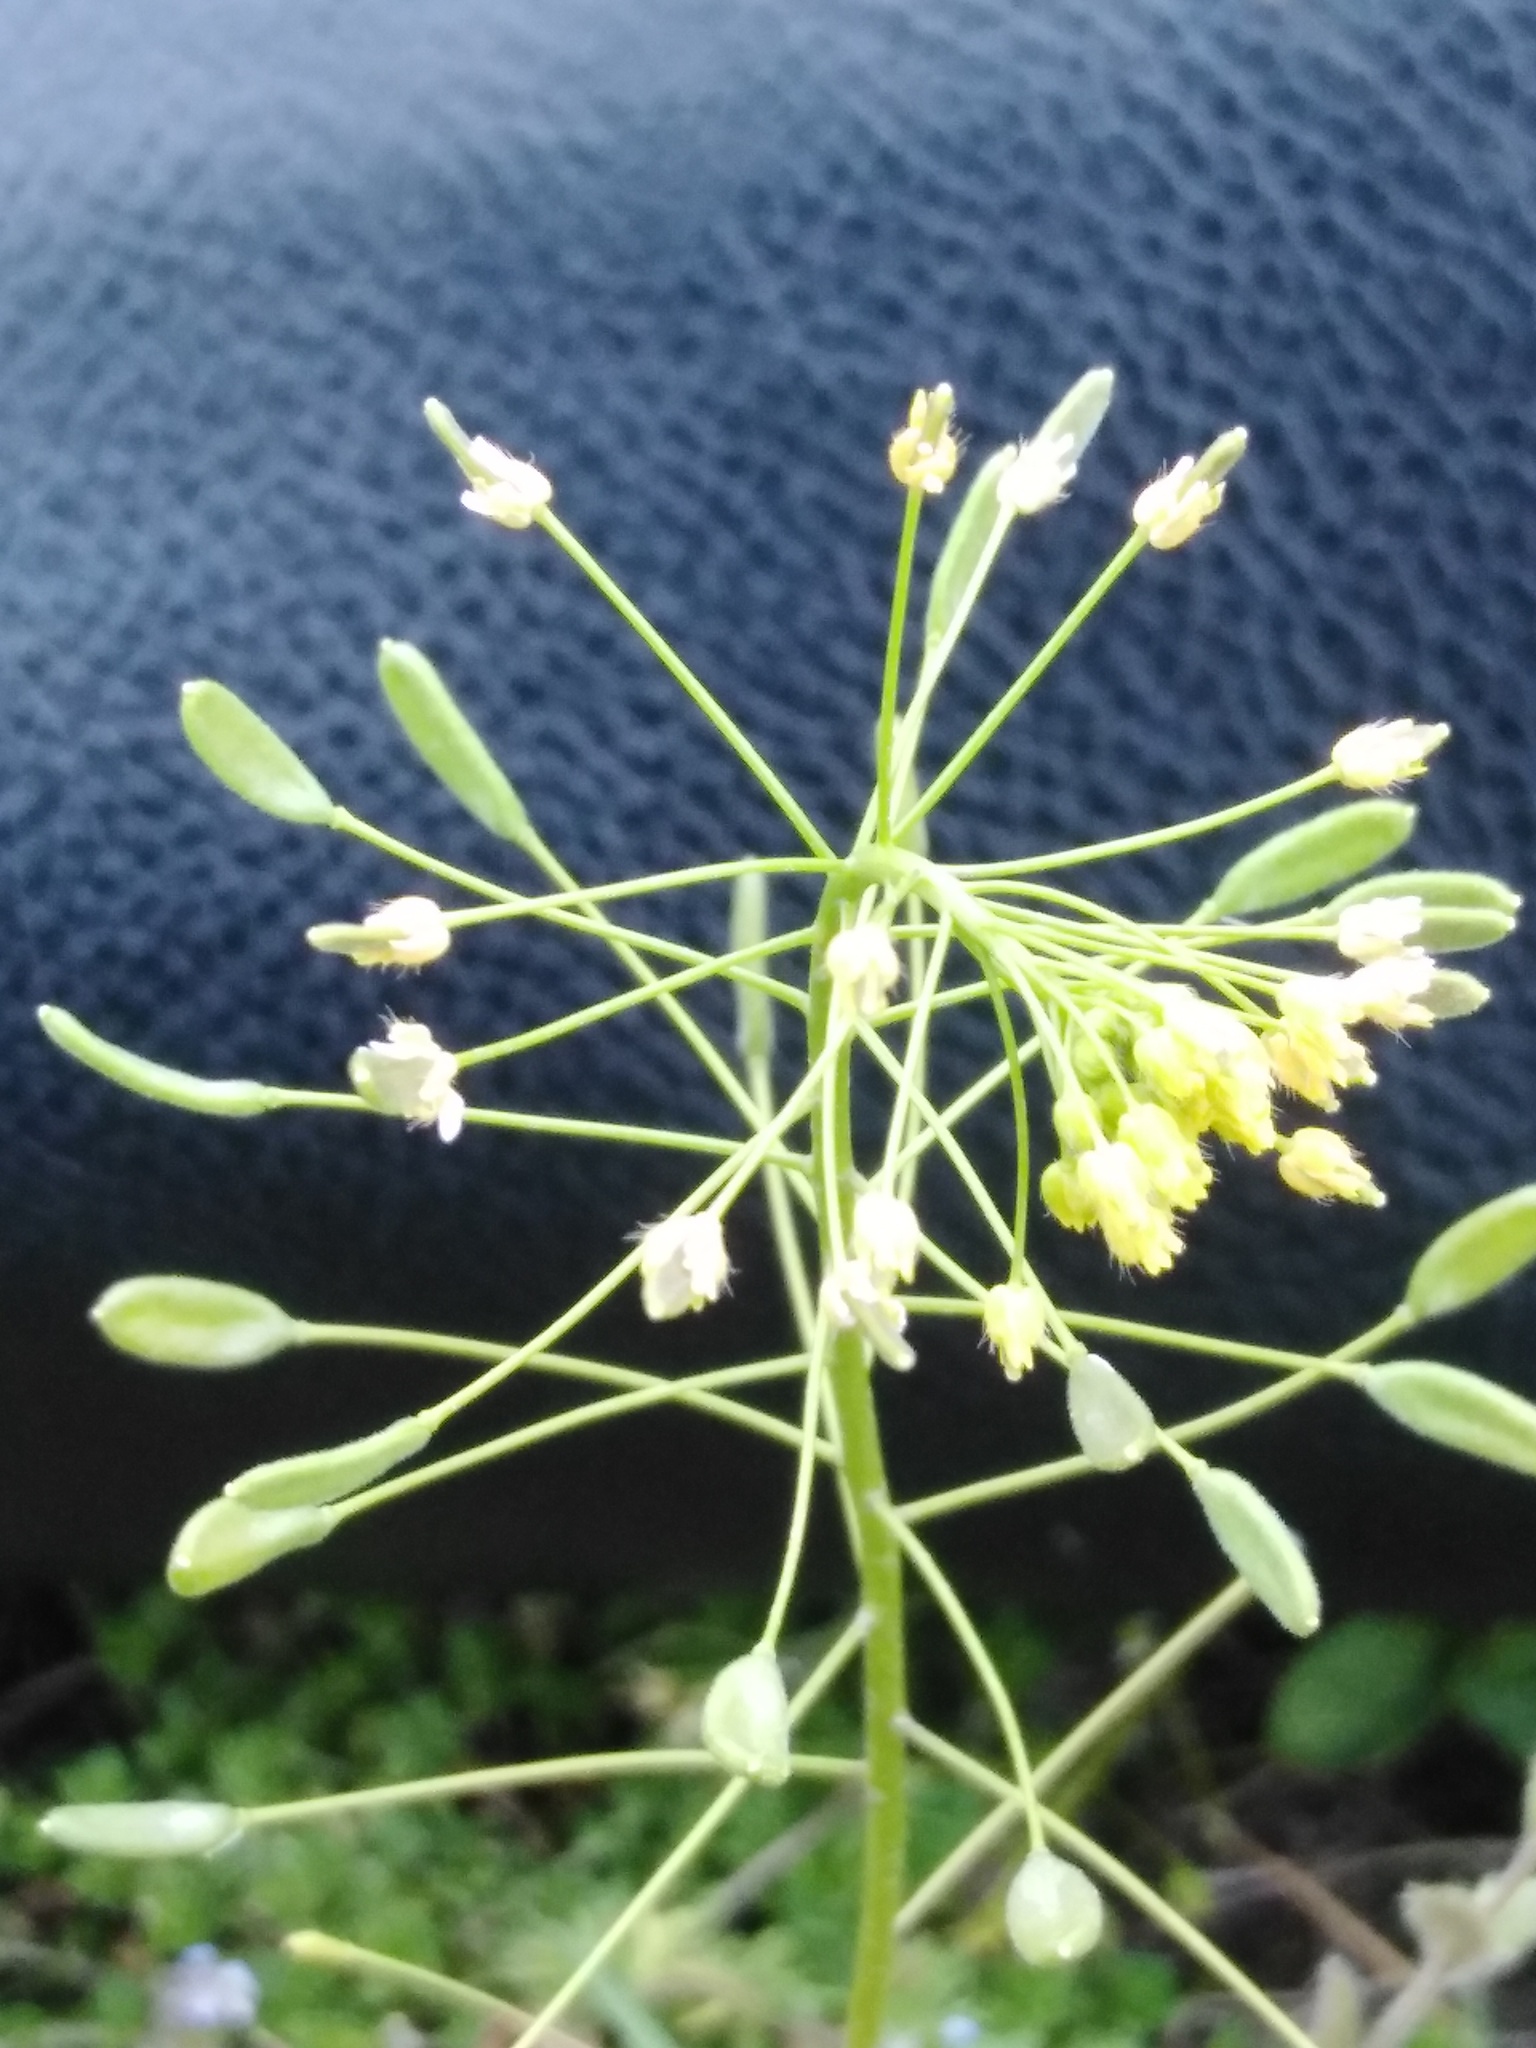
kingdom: Plantae
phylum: Tracheophyta
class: Magnoliopsida
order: Brassicales
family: Brassicaceae
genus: Draba
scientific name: Draba nemorosa
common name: Wood whitlow-grass
